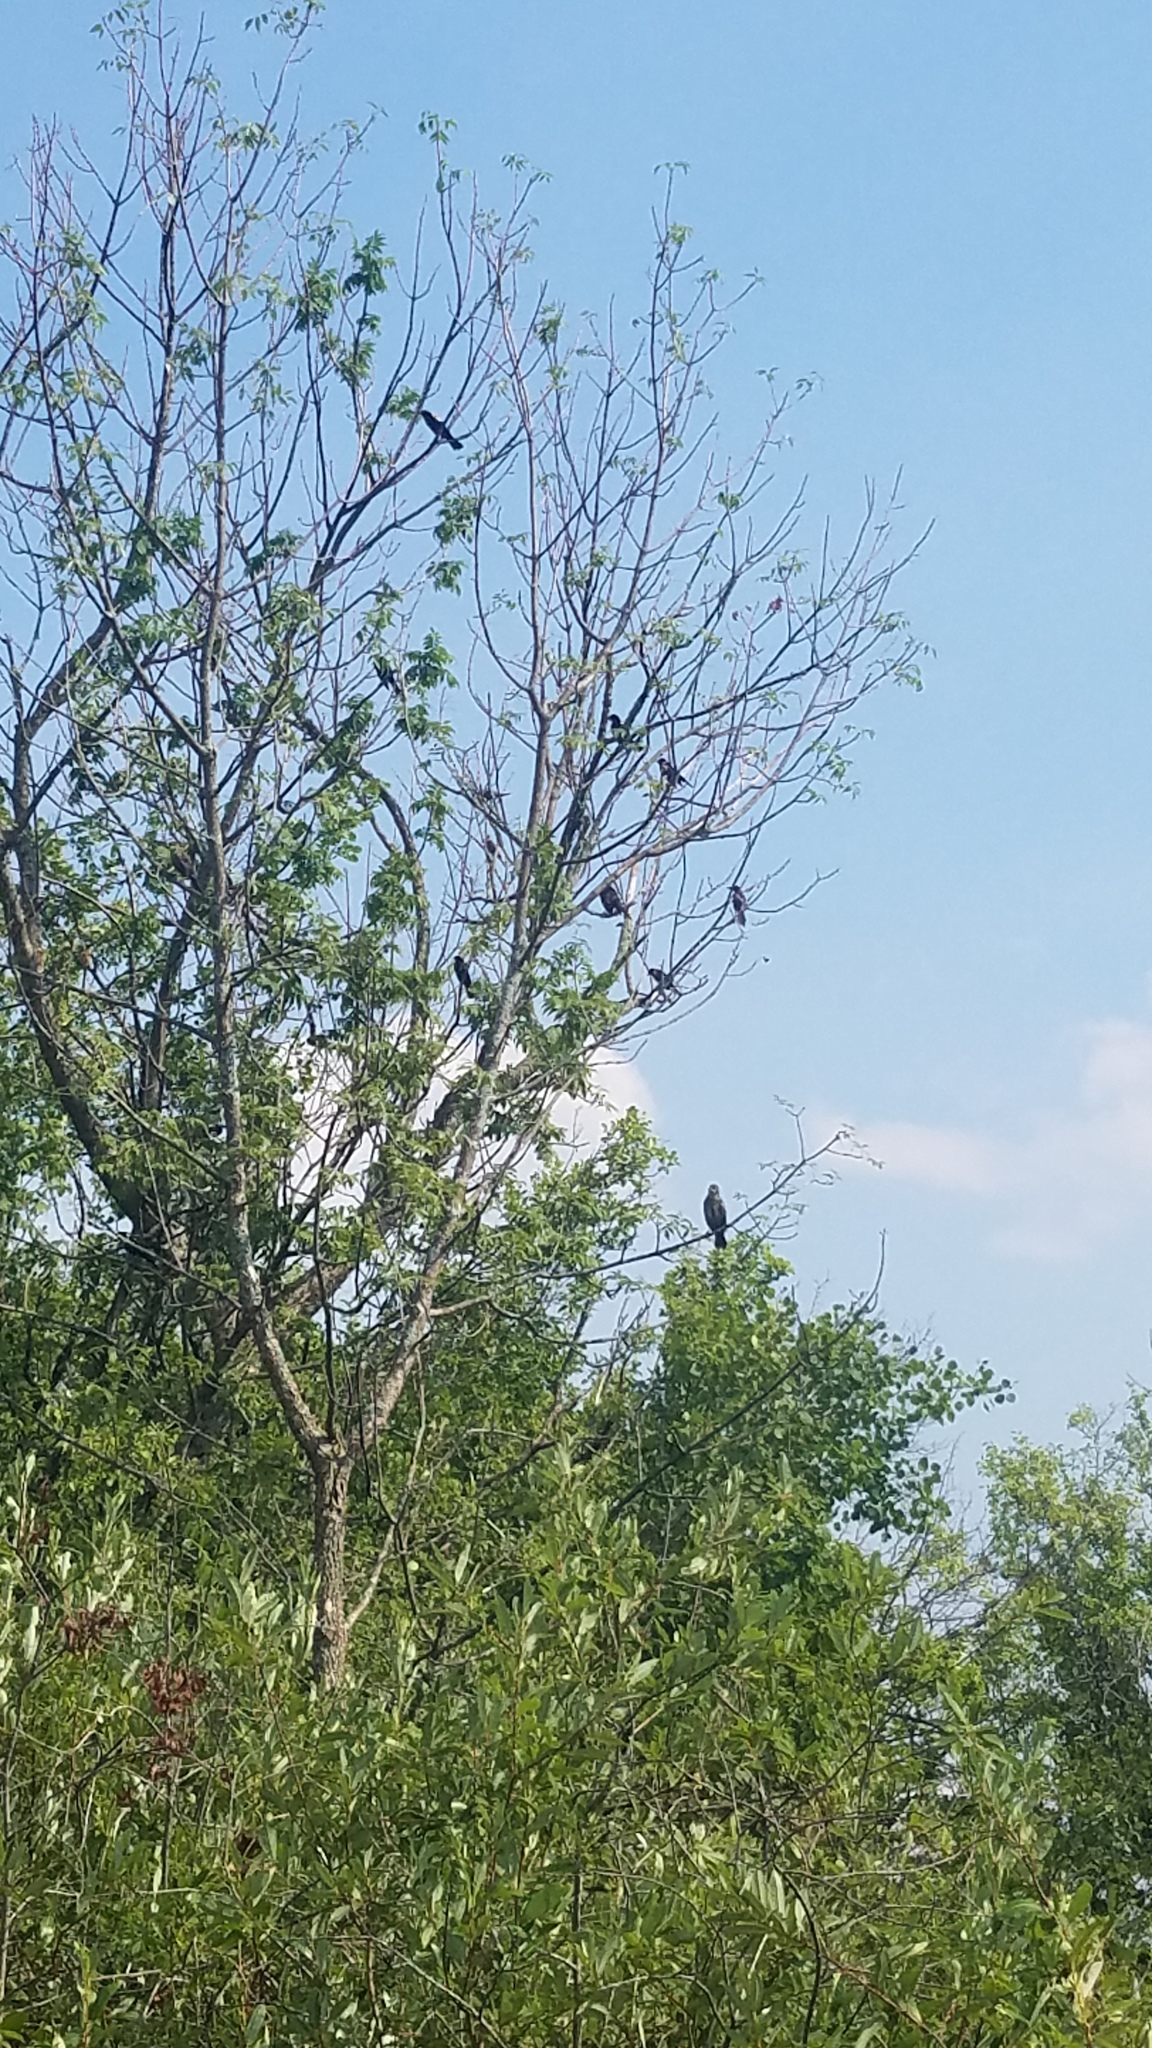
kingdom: Animalia
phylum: Chordata
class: Aves
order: Passeriformes
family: Icteridae
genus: Agelaius
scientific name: Agelaius phoeniceus
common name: Red-winged blackbird
